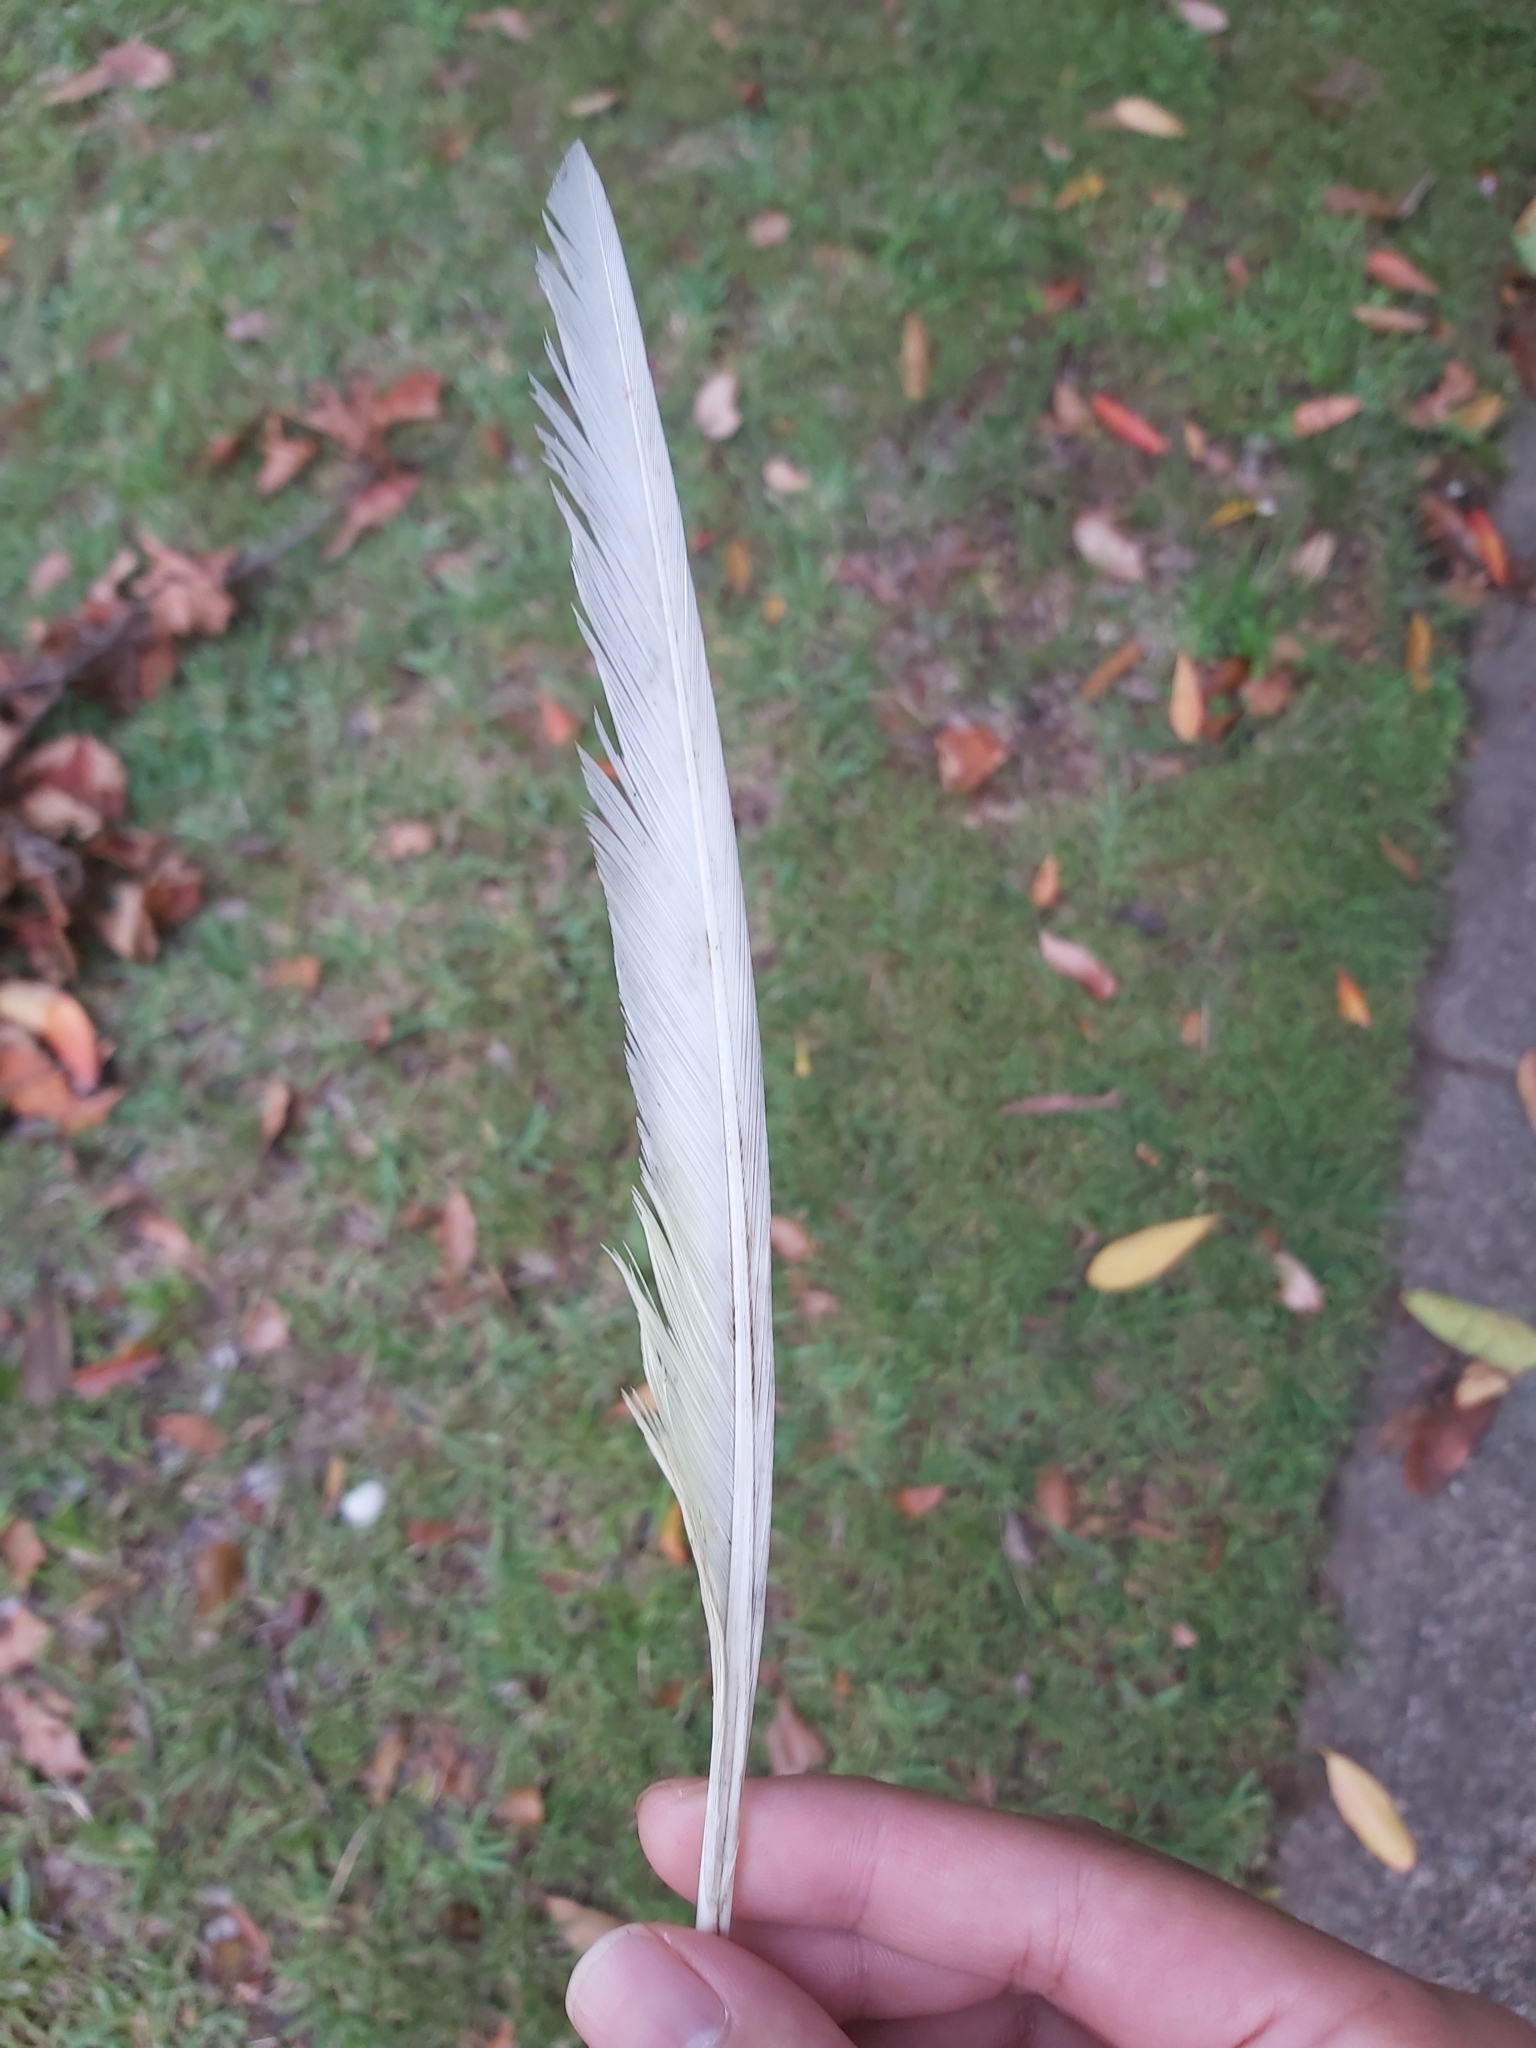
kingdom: Animalia
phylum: Chordata
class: Aves
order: Psittaciformes
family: Psittacidae
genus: Cacatua
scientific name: Cacatua galerita
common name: Sulphur-crested cockatoo
